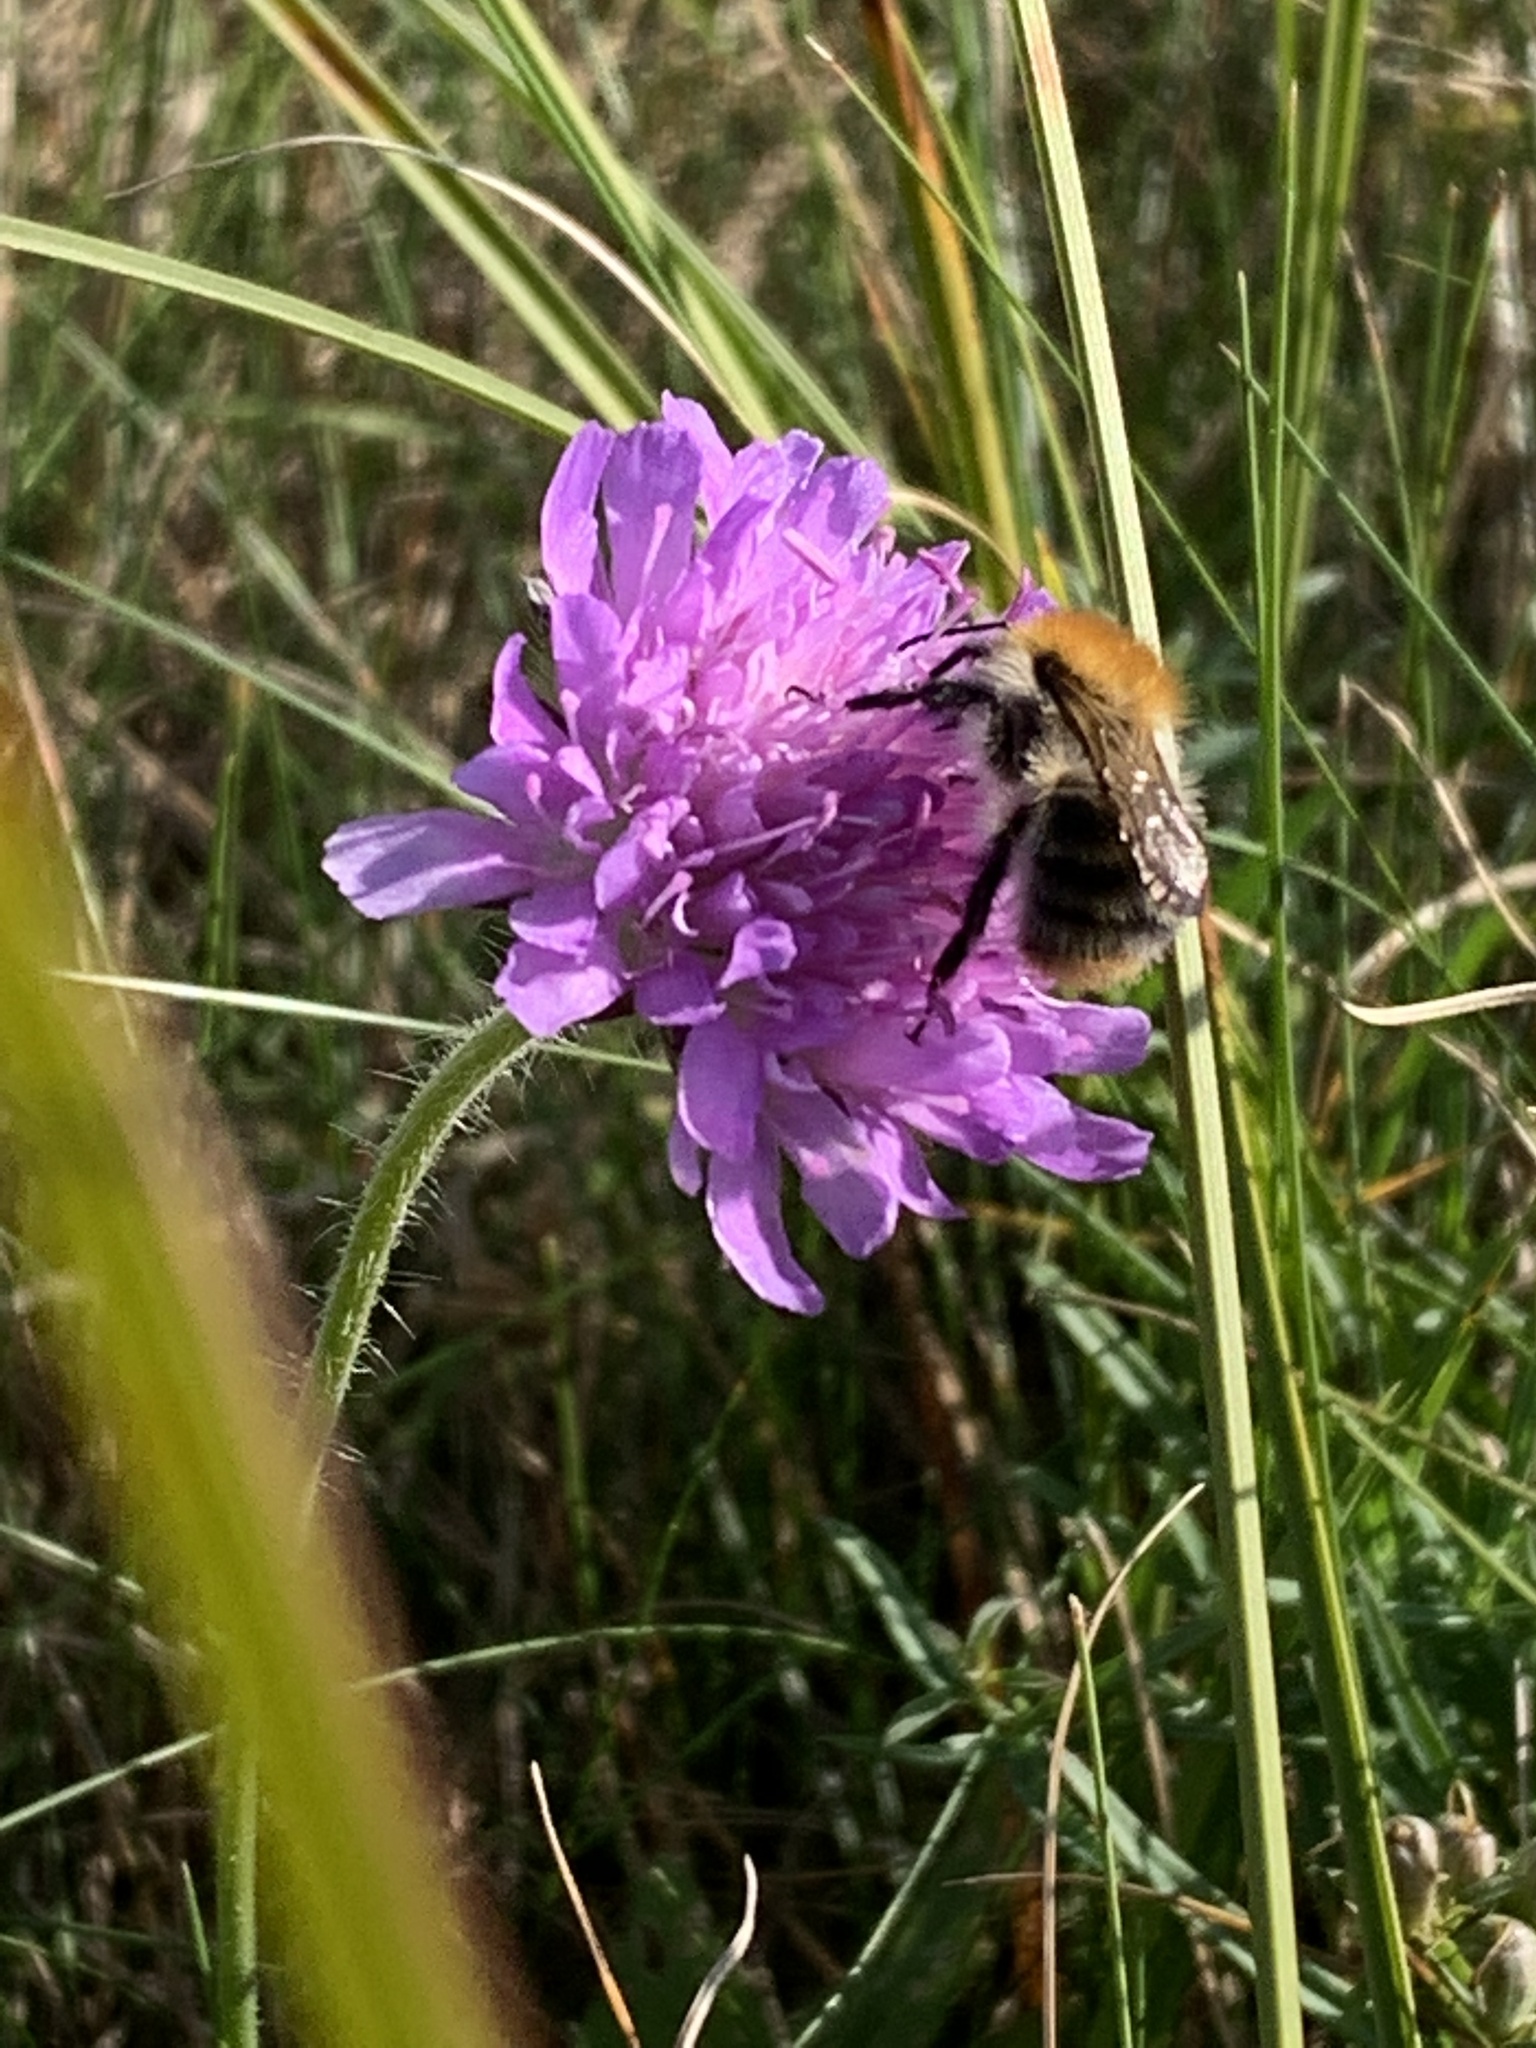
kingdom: Animalia
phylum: Arthropoda
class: Insecta
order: Hymenoptera
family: Apidae
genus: Bombus
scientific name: Bombus pascuorum
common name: Common carder bee
